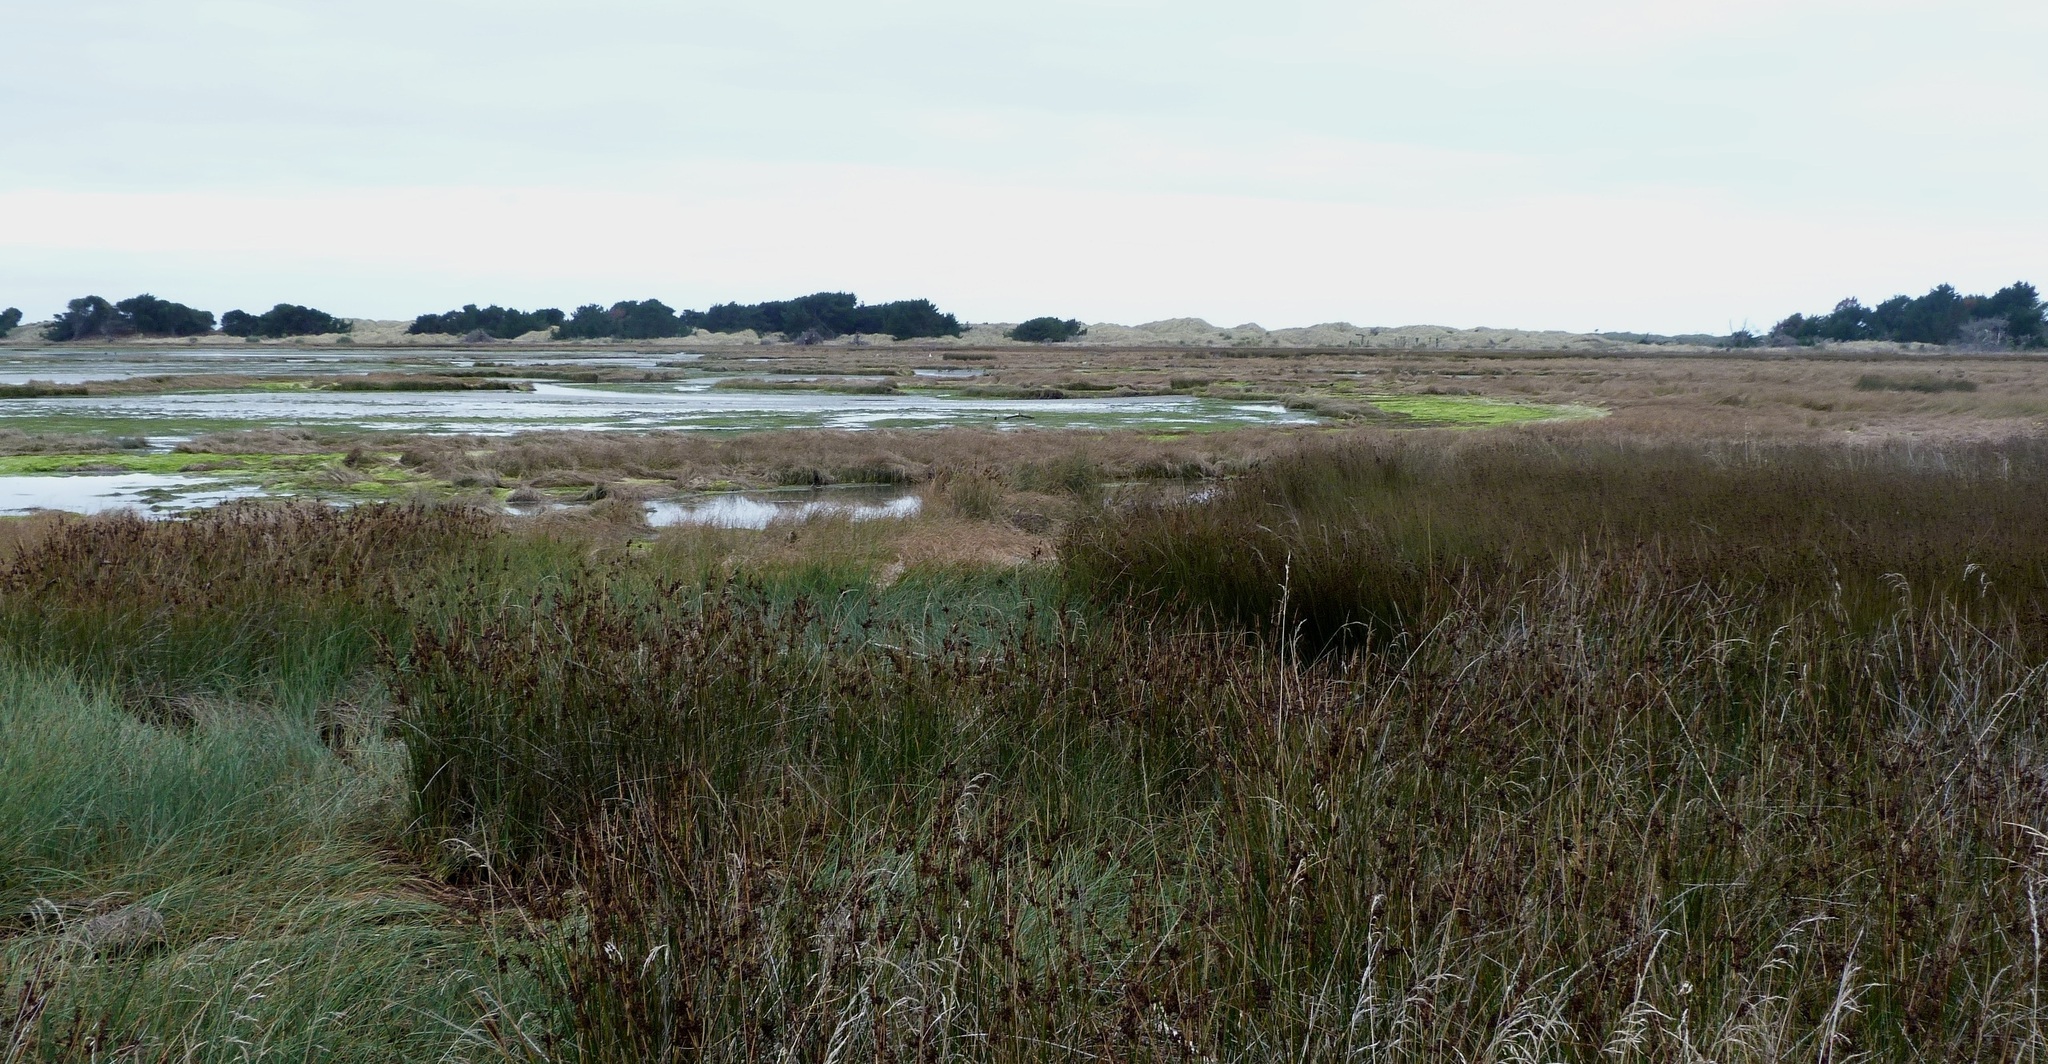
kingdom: Plantae
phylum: Tracheophyta
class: Liliopsida
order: Poales
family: Juncaceae
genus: Juncus
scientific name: Juncus kraussii
